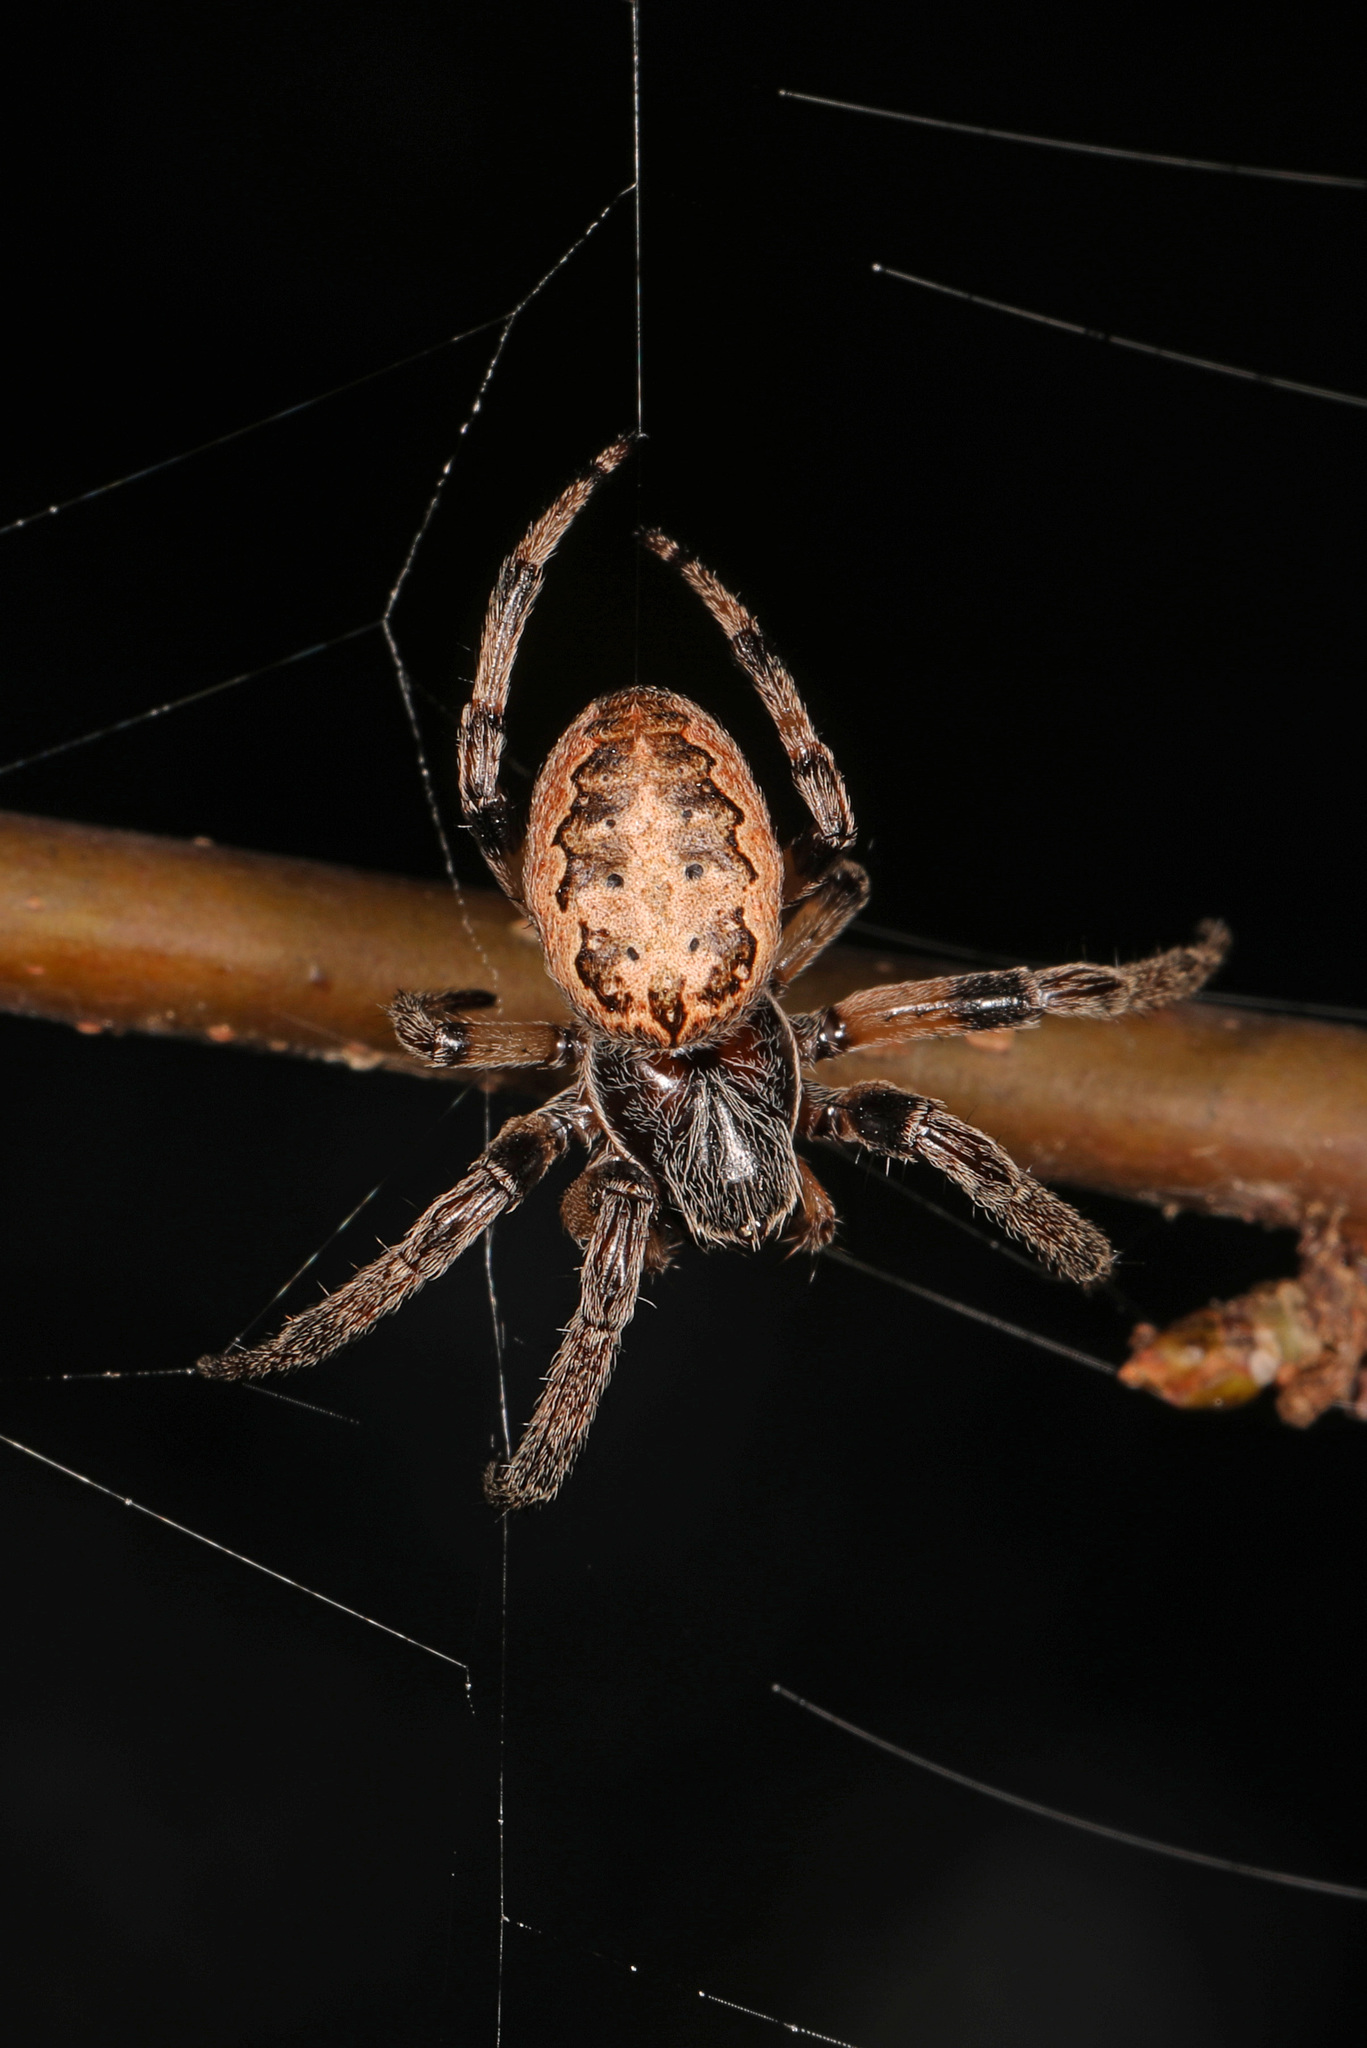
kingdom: Animalia
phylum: Arthropoda
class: Arachnida
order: Araneae
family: Araneidae
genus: Larinioides
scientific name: Larinioides cornutus
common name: Furrow orbweaver
